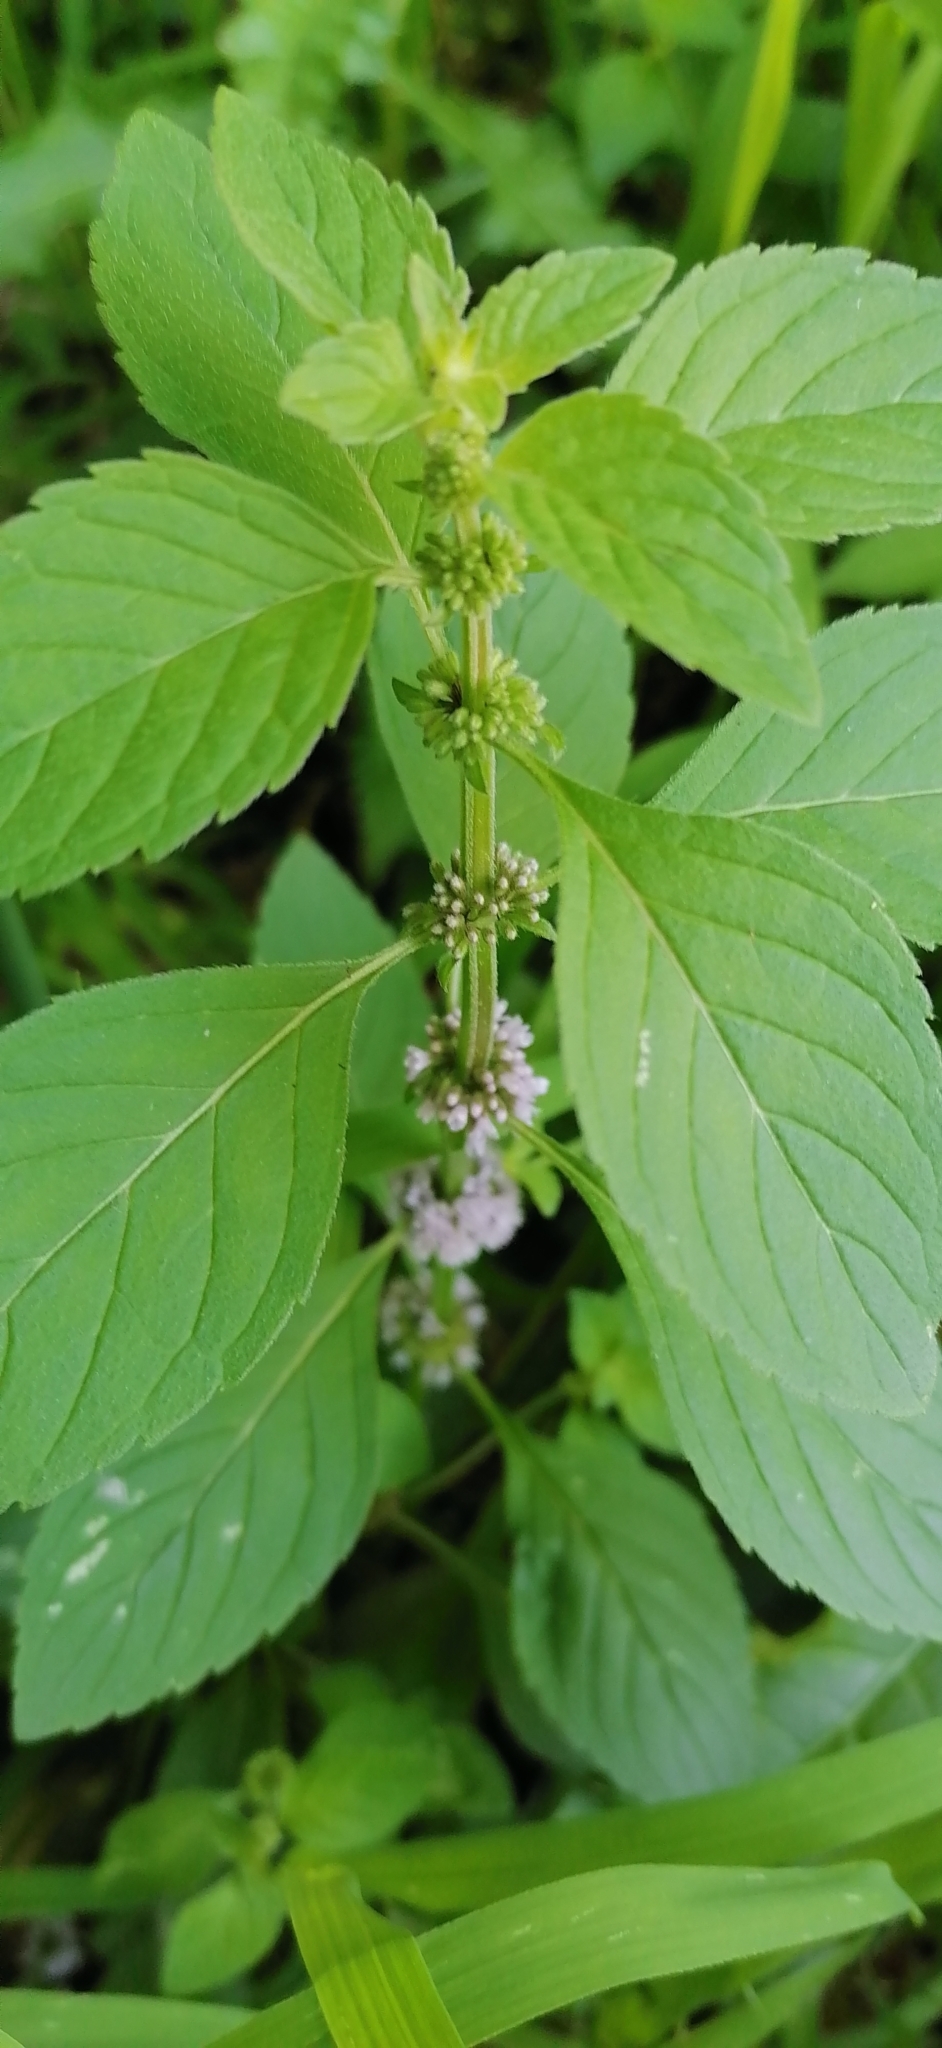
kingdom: Plantae
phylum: Tracheophyta
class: Magnoliopsida
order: Lamiales
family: Lamiaceae
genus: Mentha
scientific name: Mentha arvensis
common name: Corn mint
